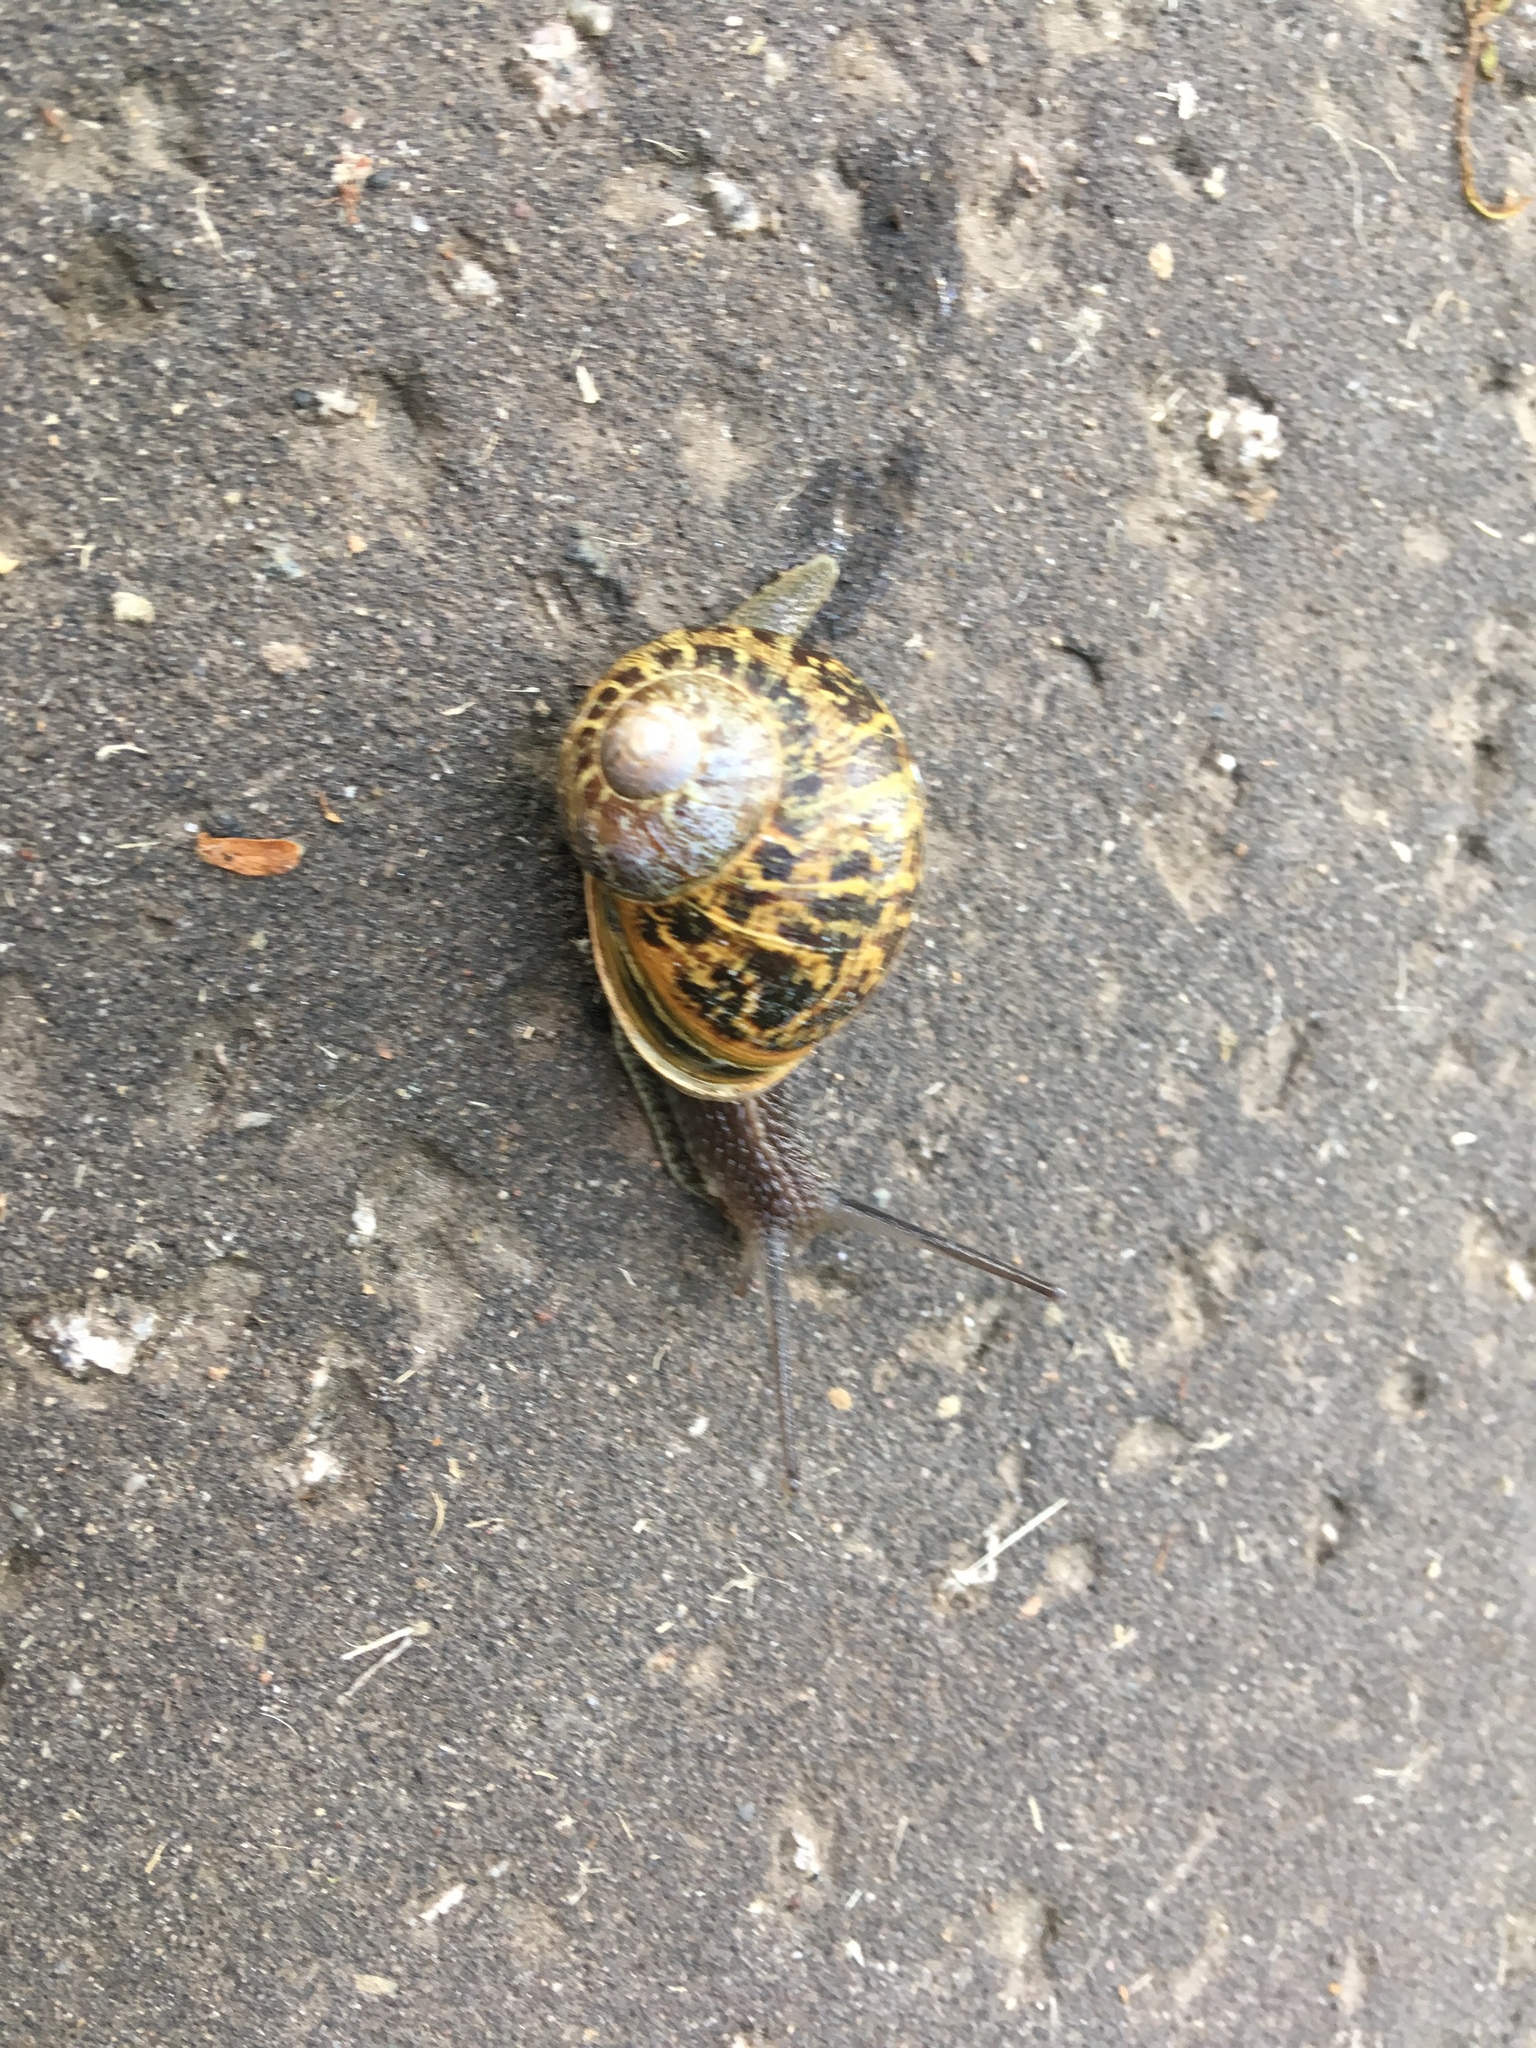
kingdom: Animalia
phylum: Mollusca
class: Gastropoda
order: Stylommatophora
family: Helicidae
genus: Cornu
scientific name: Cornu aspersum
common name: Brown garden snail
